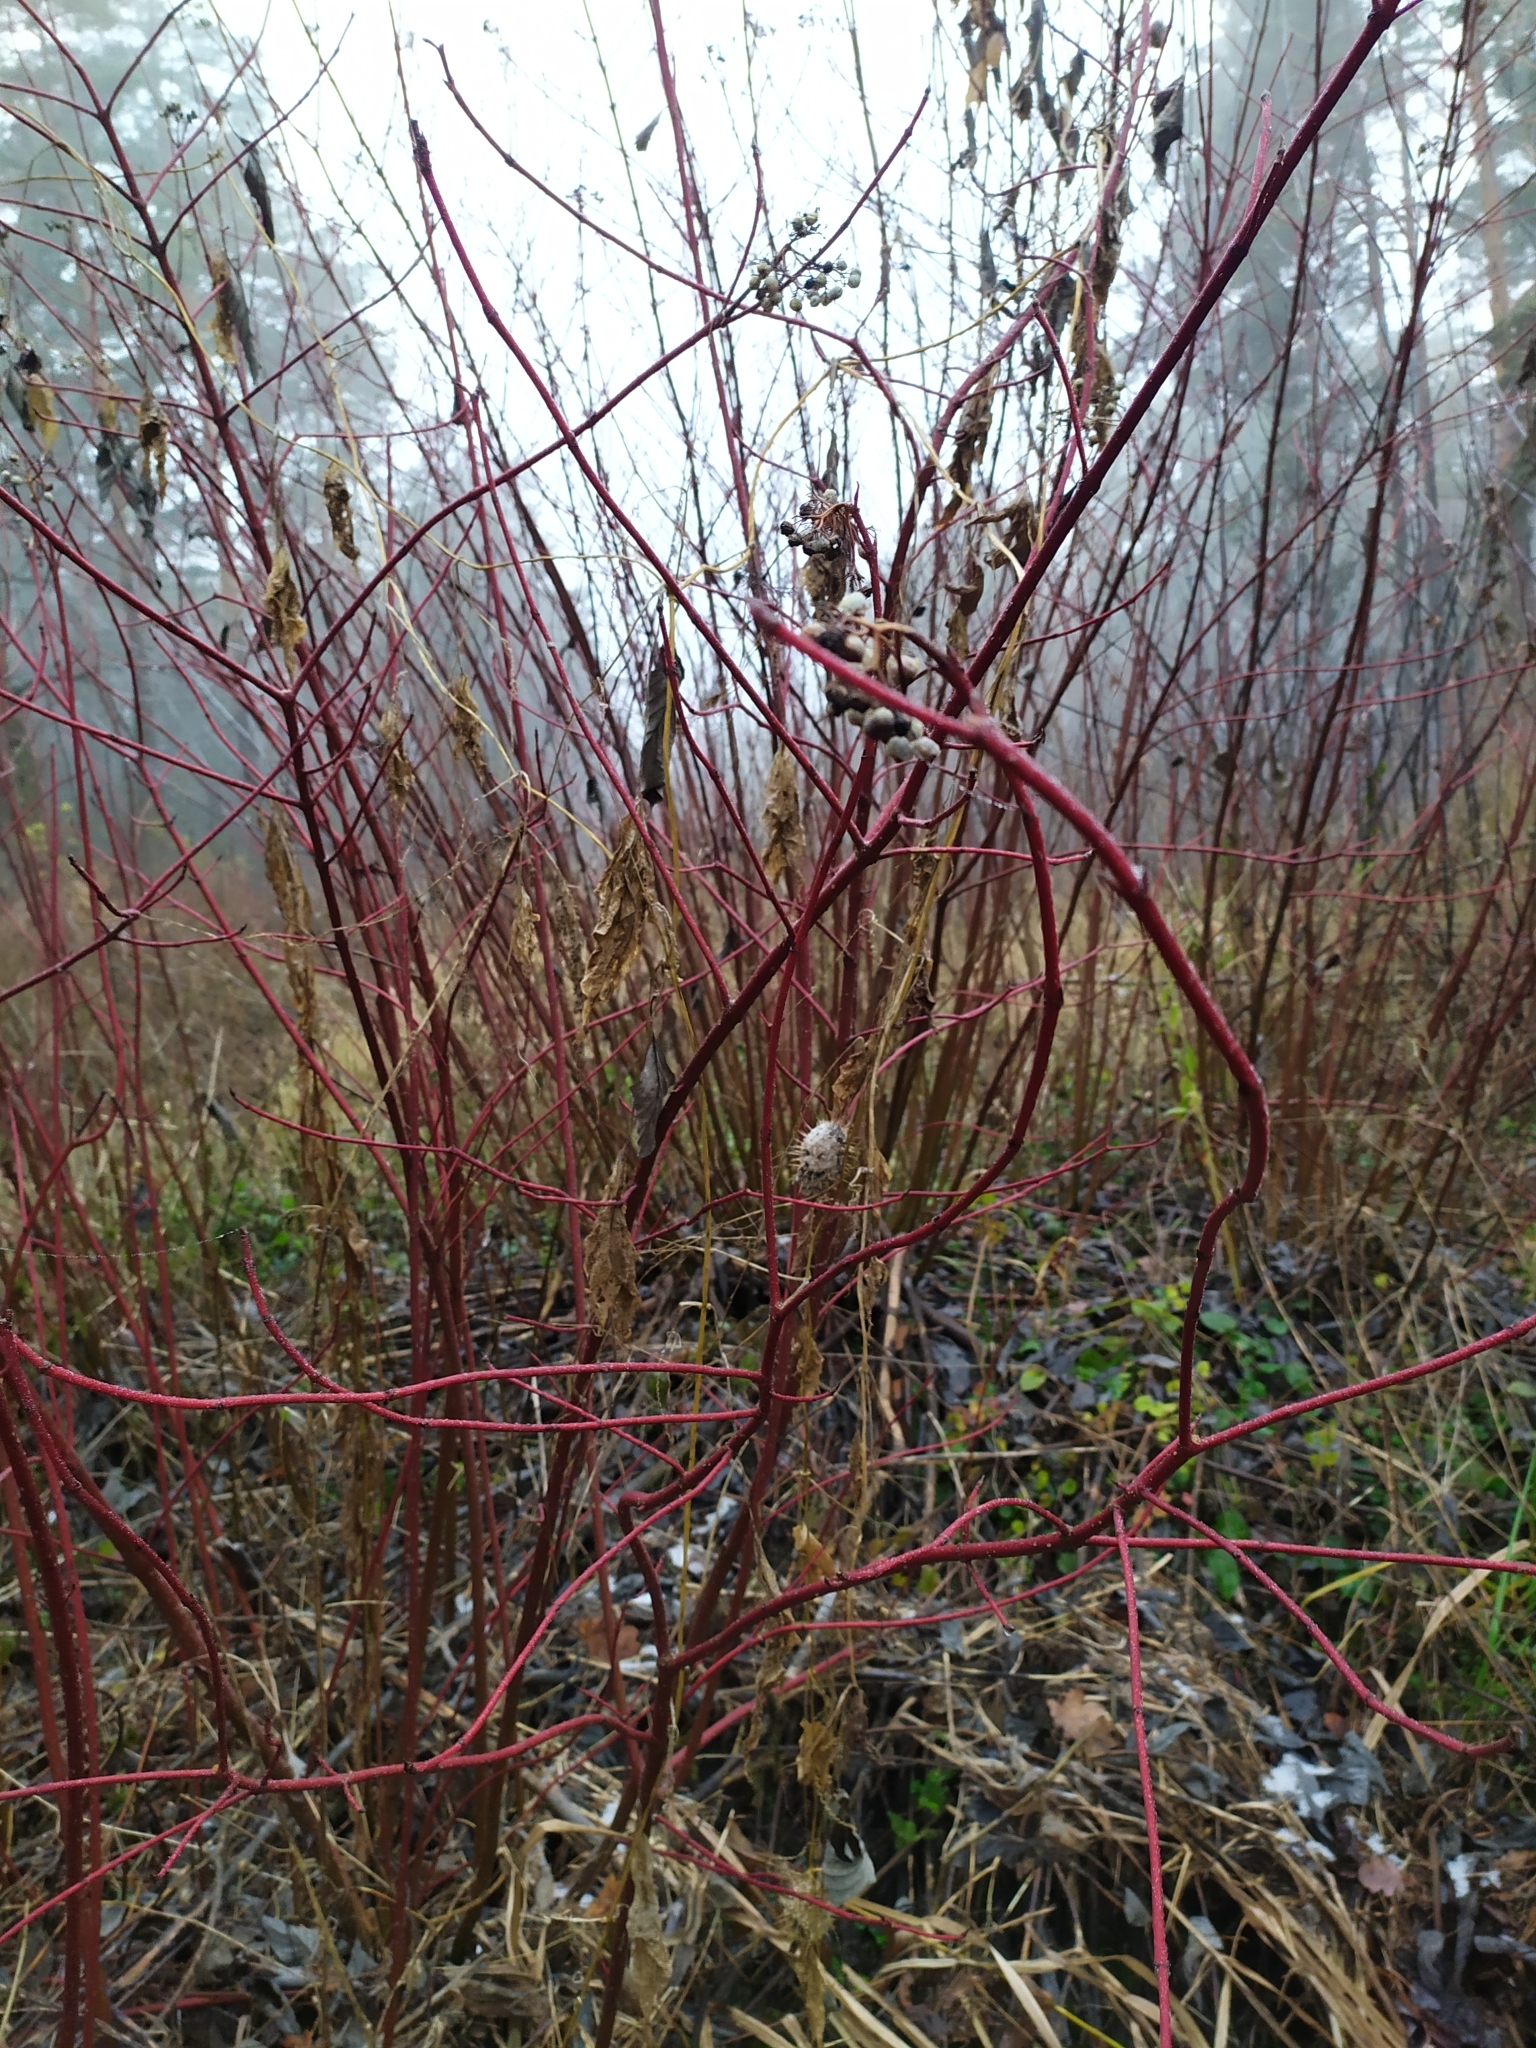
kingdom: Plantae
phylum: Tracheophyta
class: Magnoliopsida
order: Cornales
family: Cornaceae
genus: Cornus
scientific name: Cornus alba
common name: White dogwood
